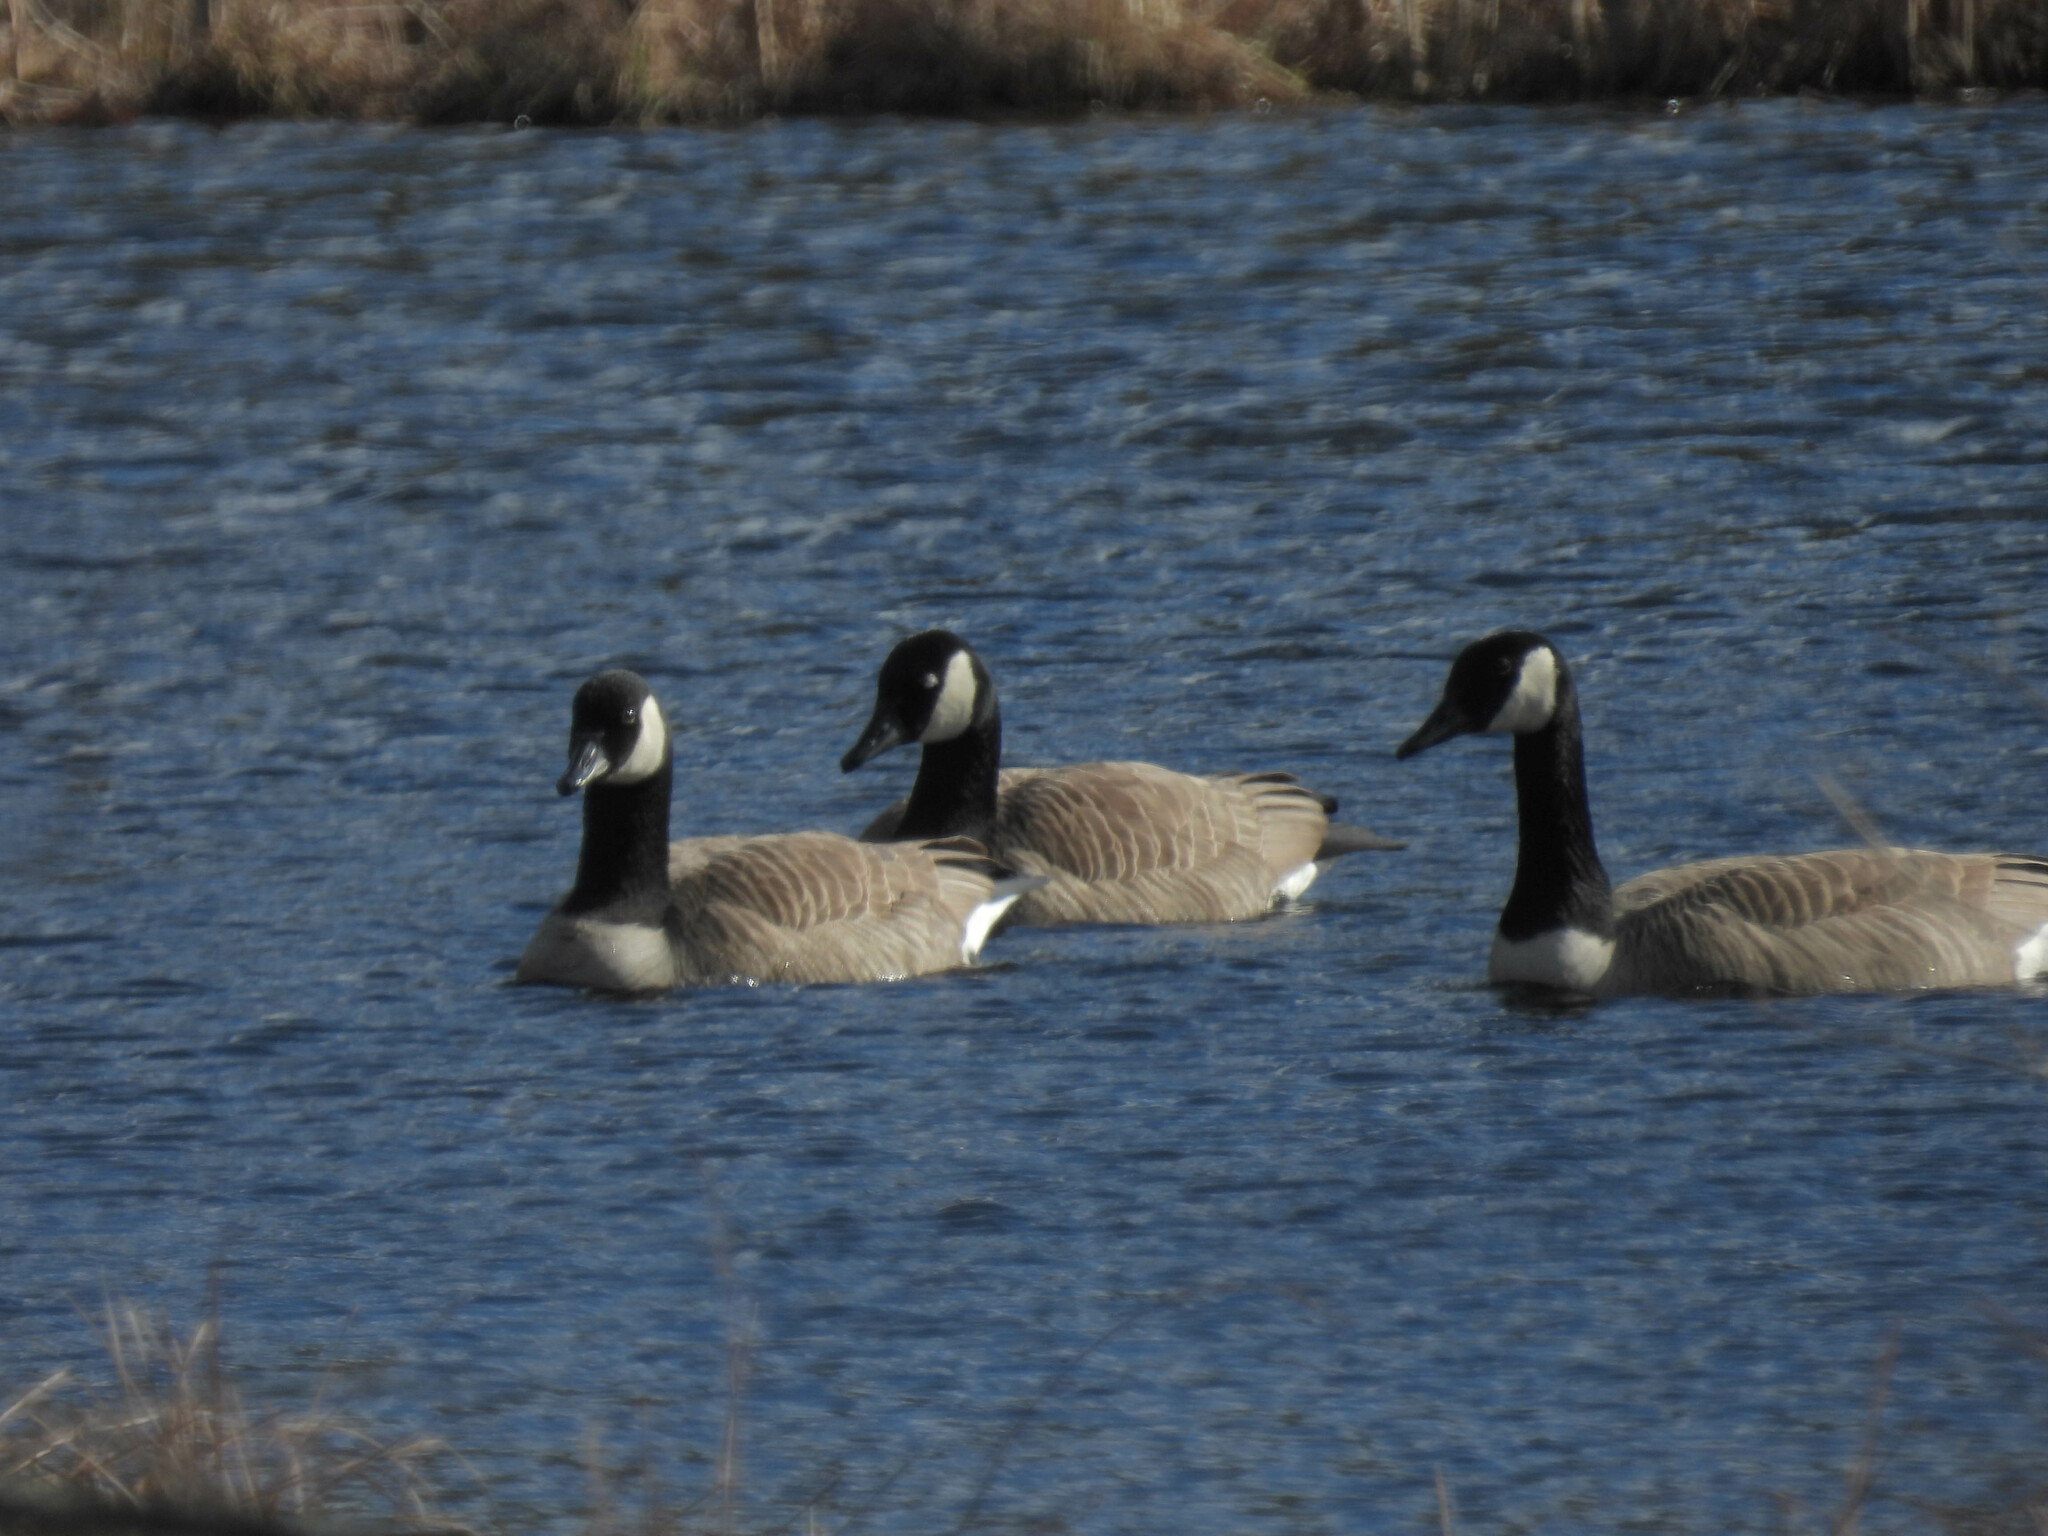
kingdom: Animalia
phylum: Chordata
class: Aves
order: Anseriformes
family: Anatidae
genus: Branta
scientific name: Branta canadensis
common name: Canada goose
